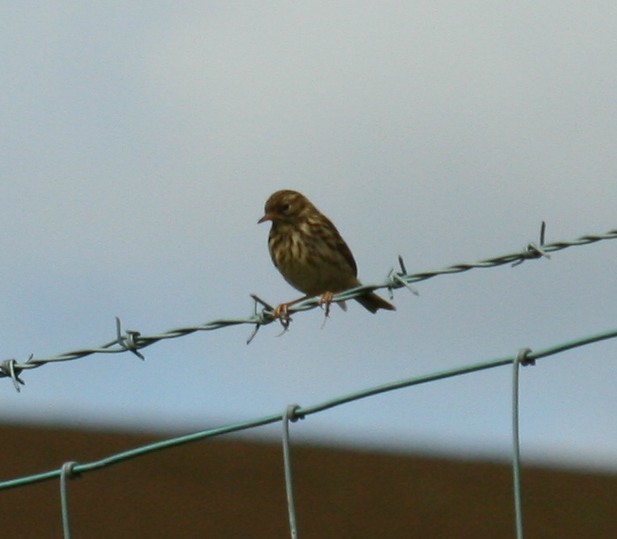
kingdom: Animalia
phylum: Chordata
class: Aves
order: Passeriformes
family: Motacillidae
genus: Anthus
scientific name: Anthus pratensis
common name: Meadow pipit
